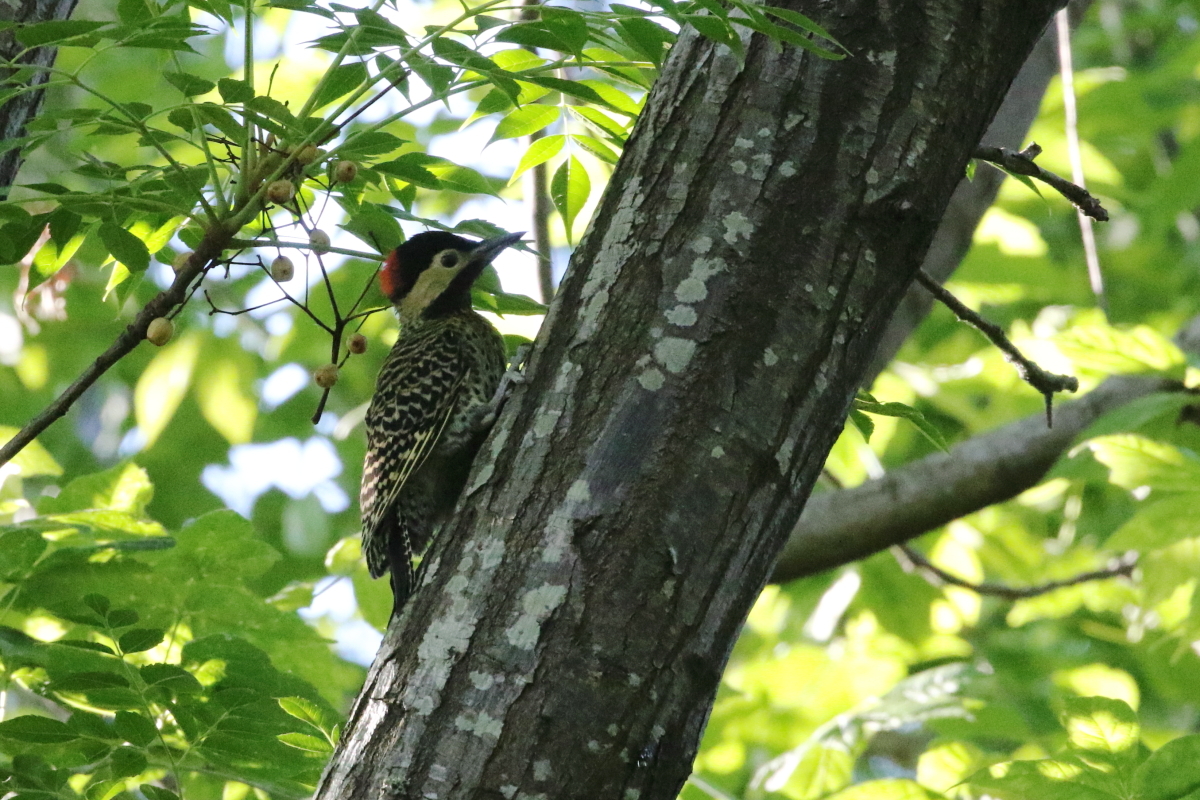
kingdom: Animalia
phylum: Chordata
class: Aves
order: Piciformes
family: Picidae
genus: Colaptes
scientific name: Colaptes melanochloros
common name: Green-barred woodpecker
